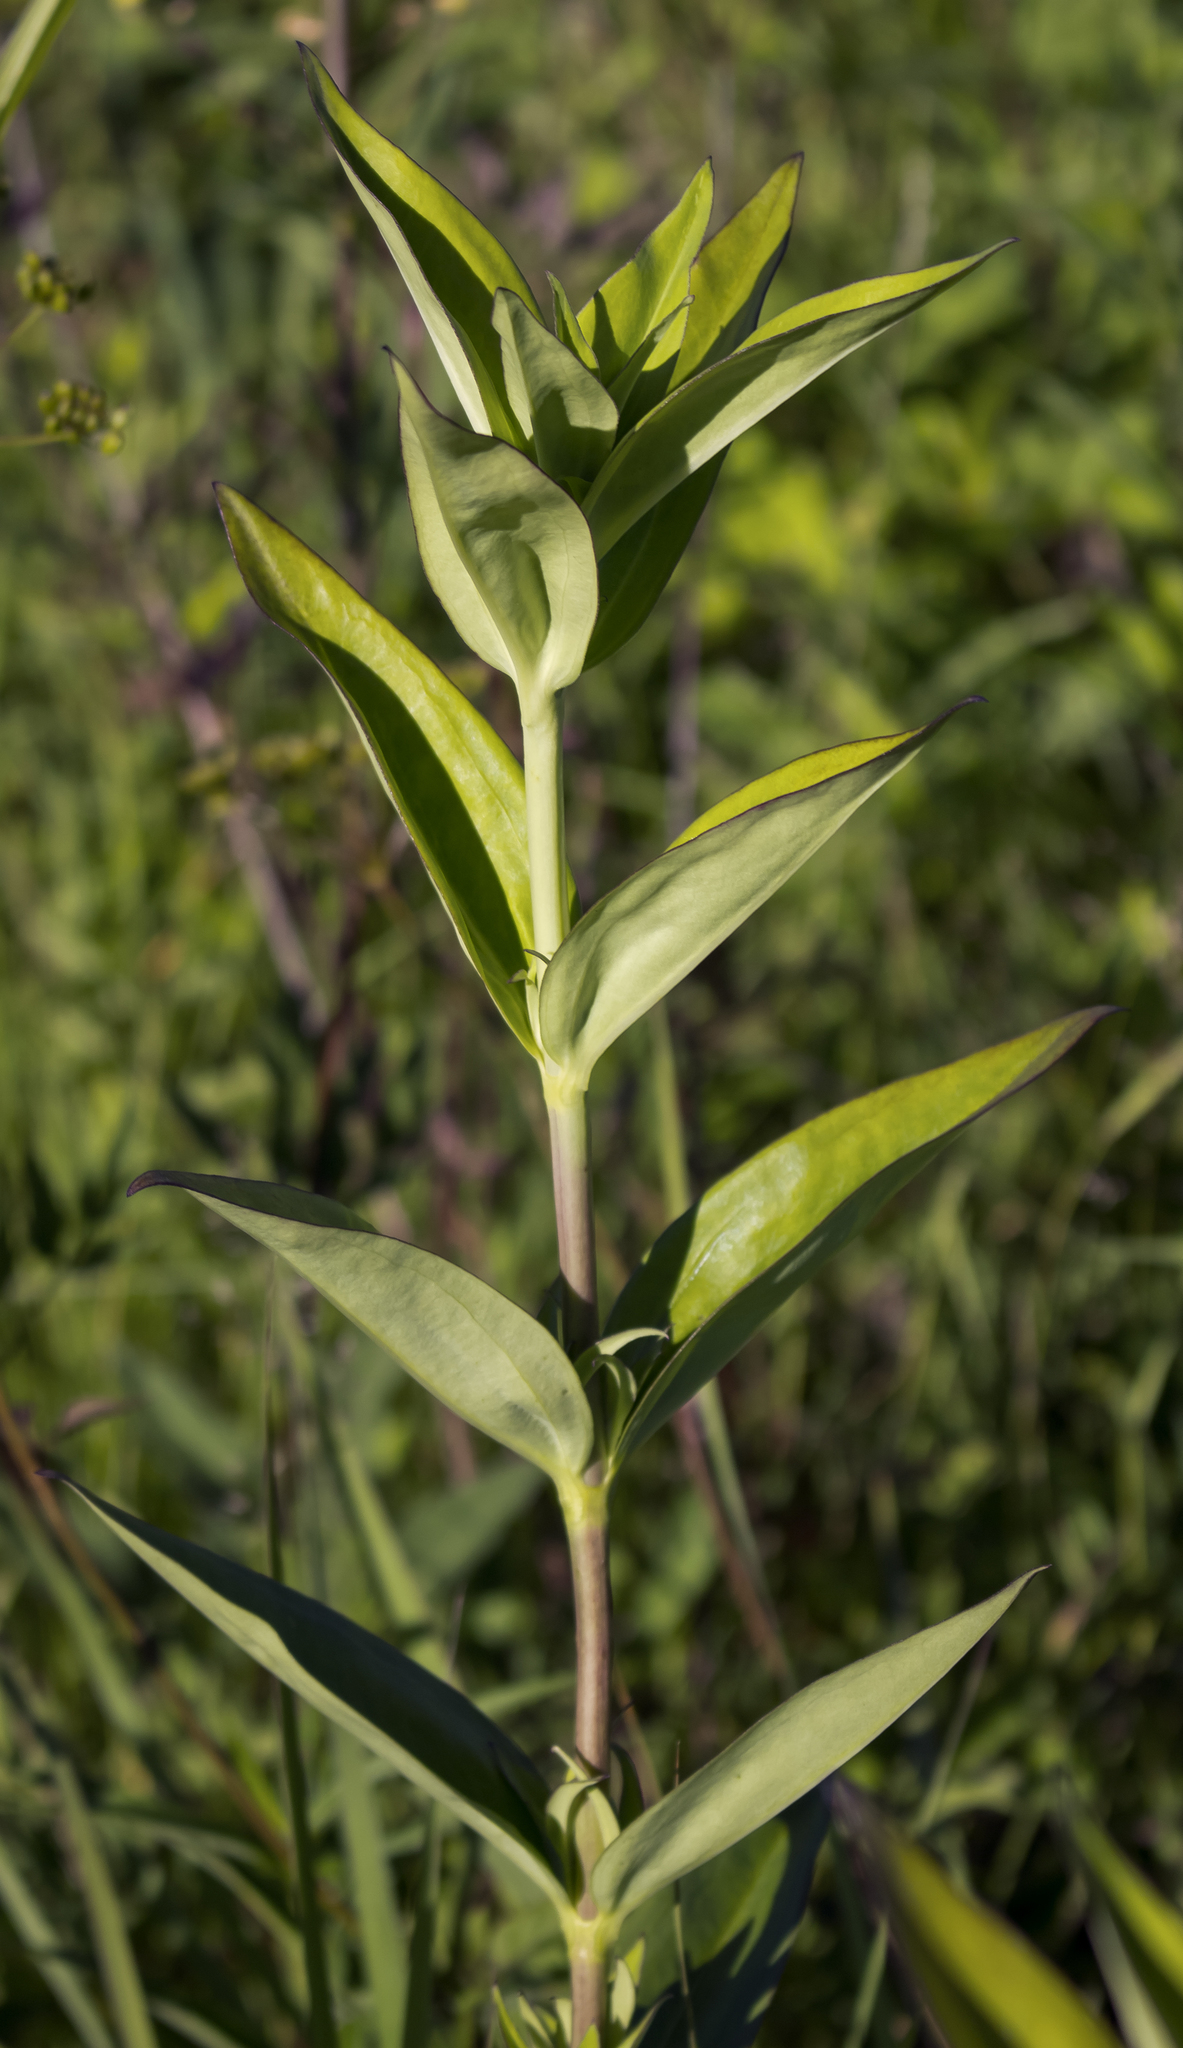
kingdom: Plantae
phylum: Tracheophyta
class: Magnoliopsida
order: Gentianales
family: Gentianaceae
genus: Gentiana
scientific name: Gentiana andrewsii
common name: Bottle gentian
